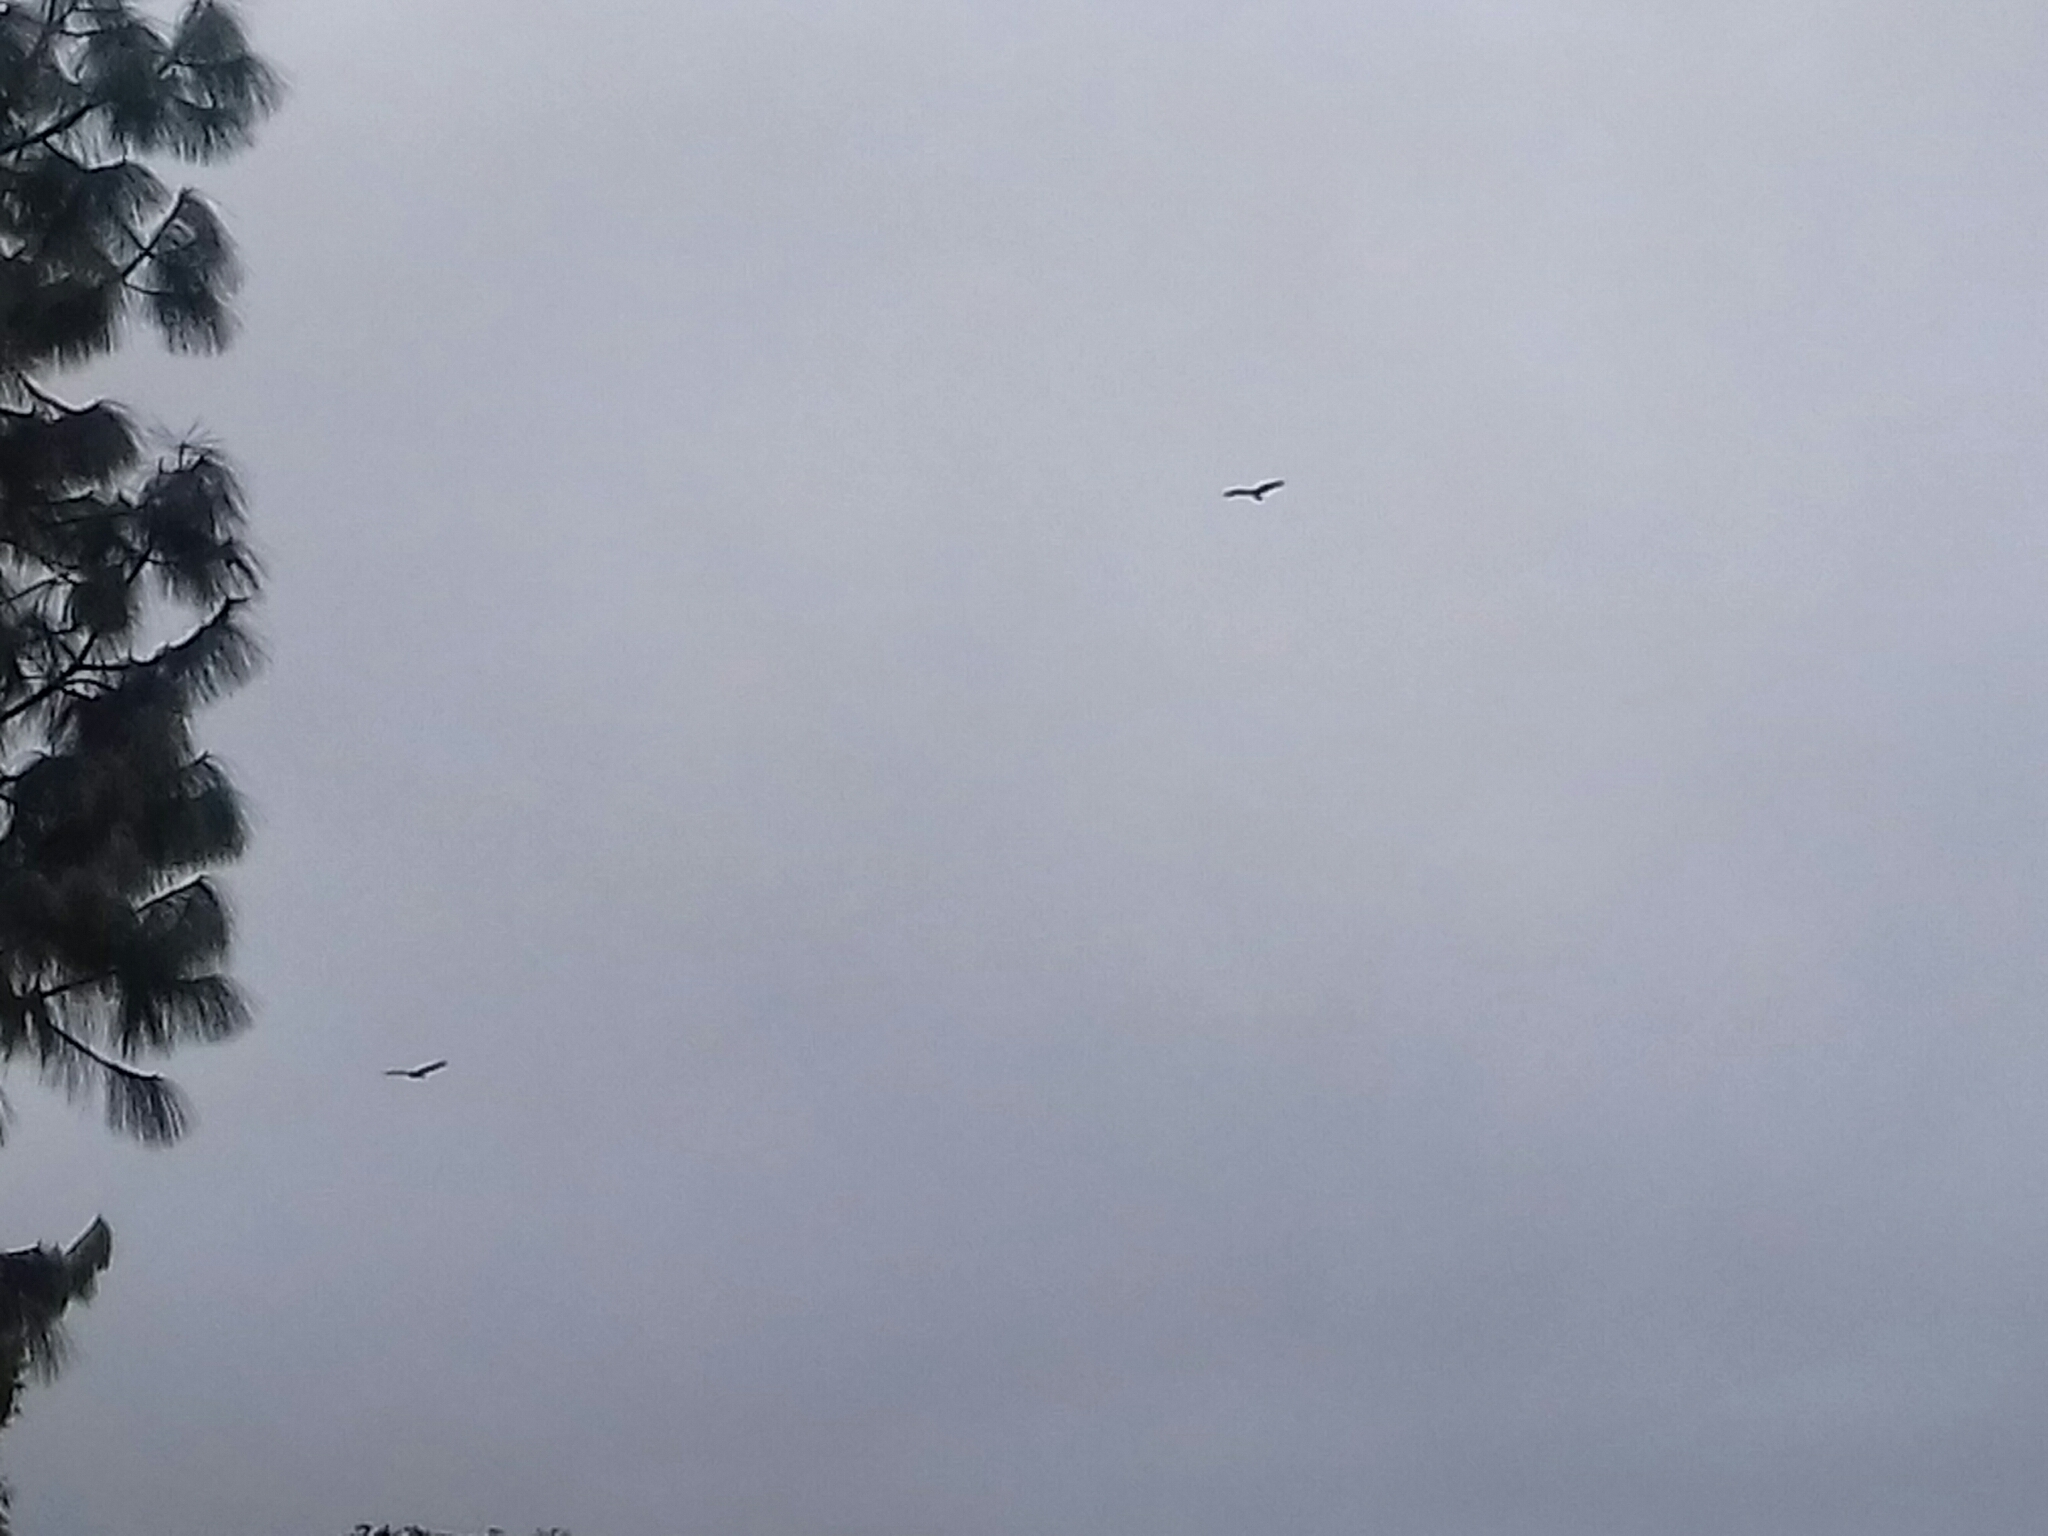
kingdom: Animalia
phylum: Chordata
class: Aves
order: Accipitriformes
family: Cathartidae
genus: Cathartes
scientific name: Cathartes aura
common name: Turkey vulture
